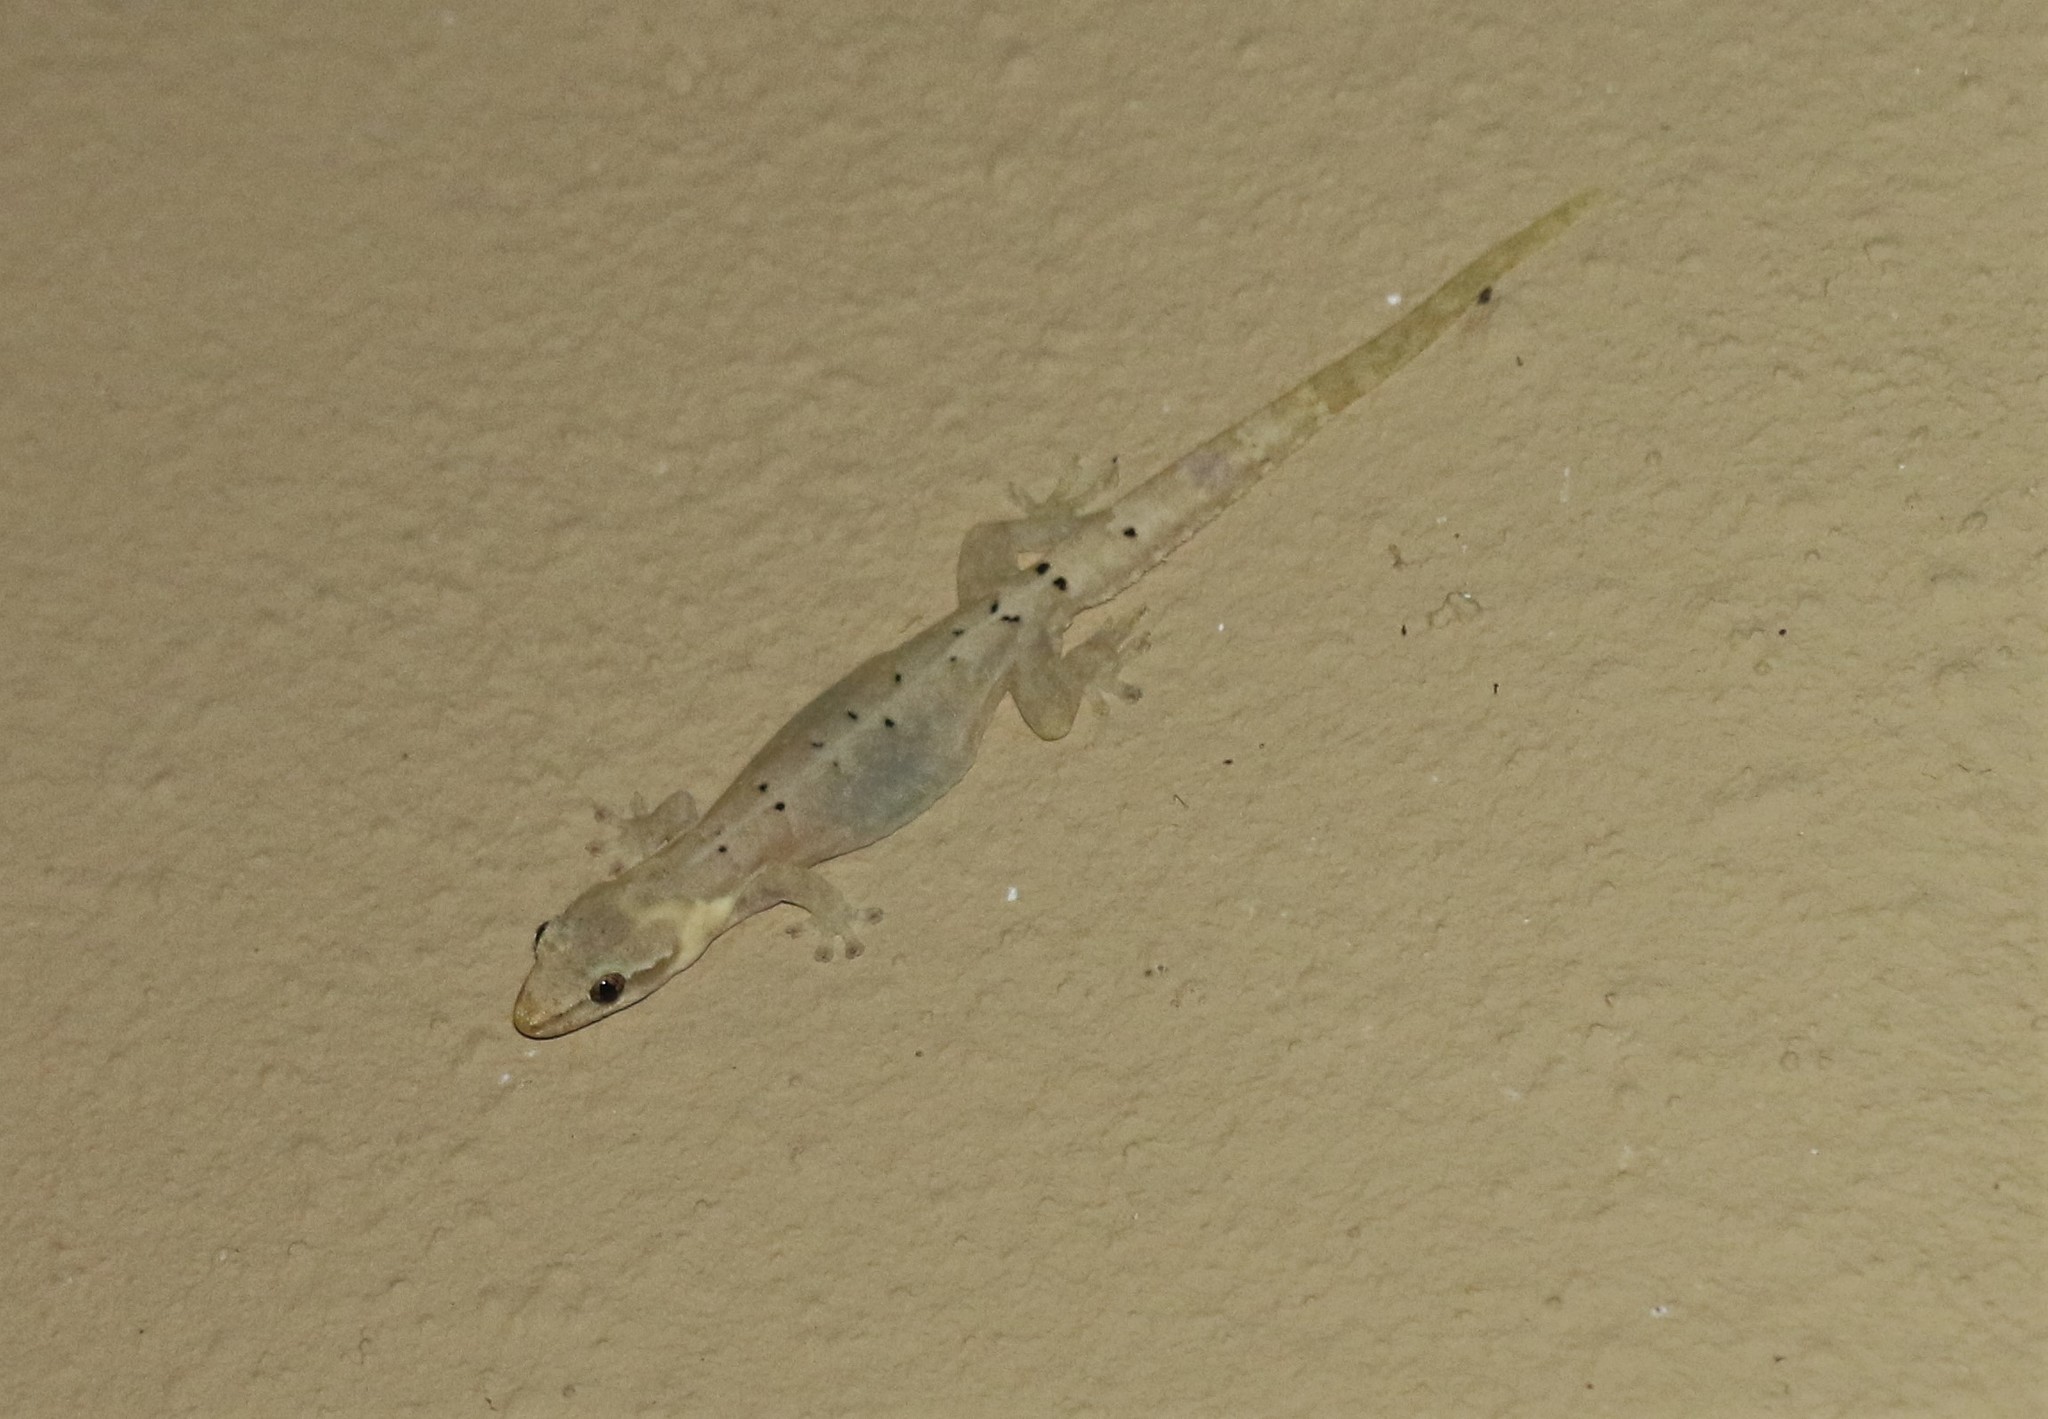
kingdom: Animalia
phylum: Chordata
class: Squamata
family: Gekkonidae
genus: Lepidodactylus
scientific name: Lepidodactylus lugubris
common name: Mourning gecko
